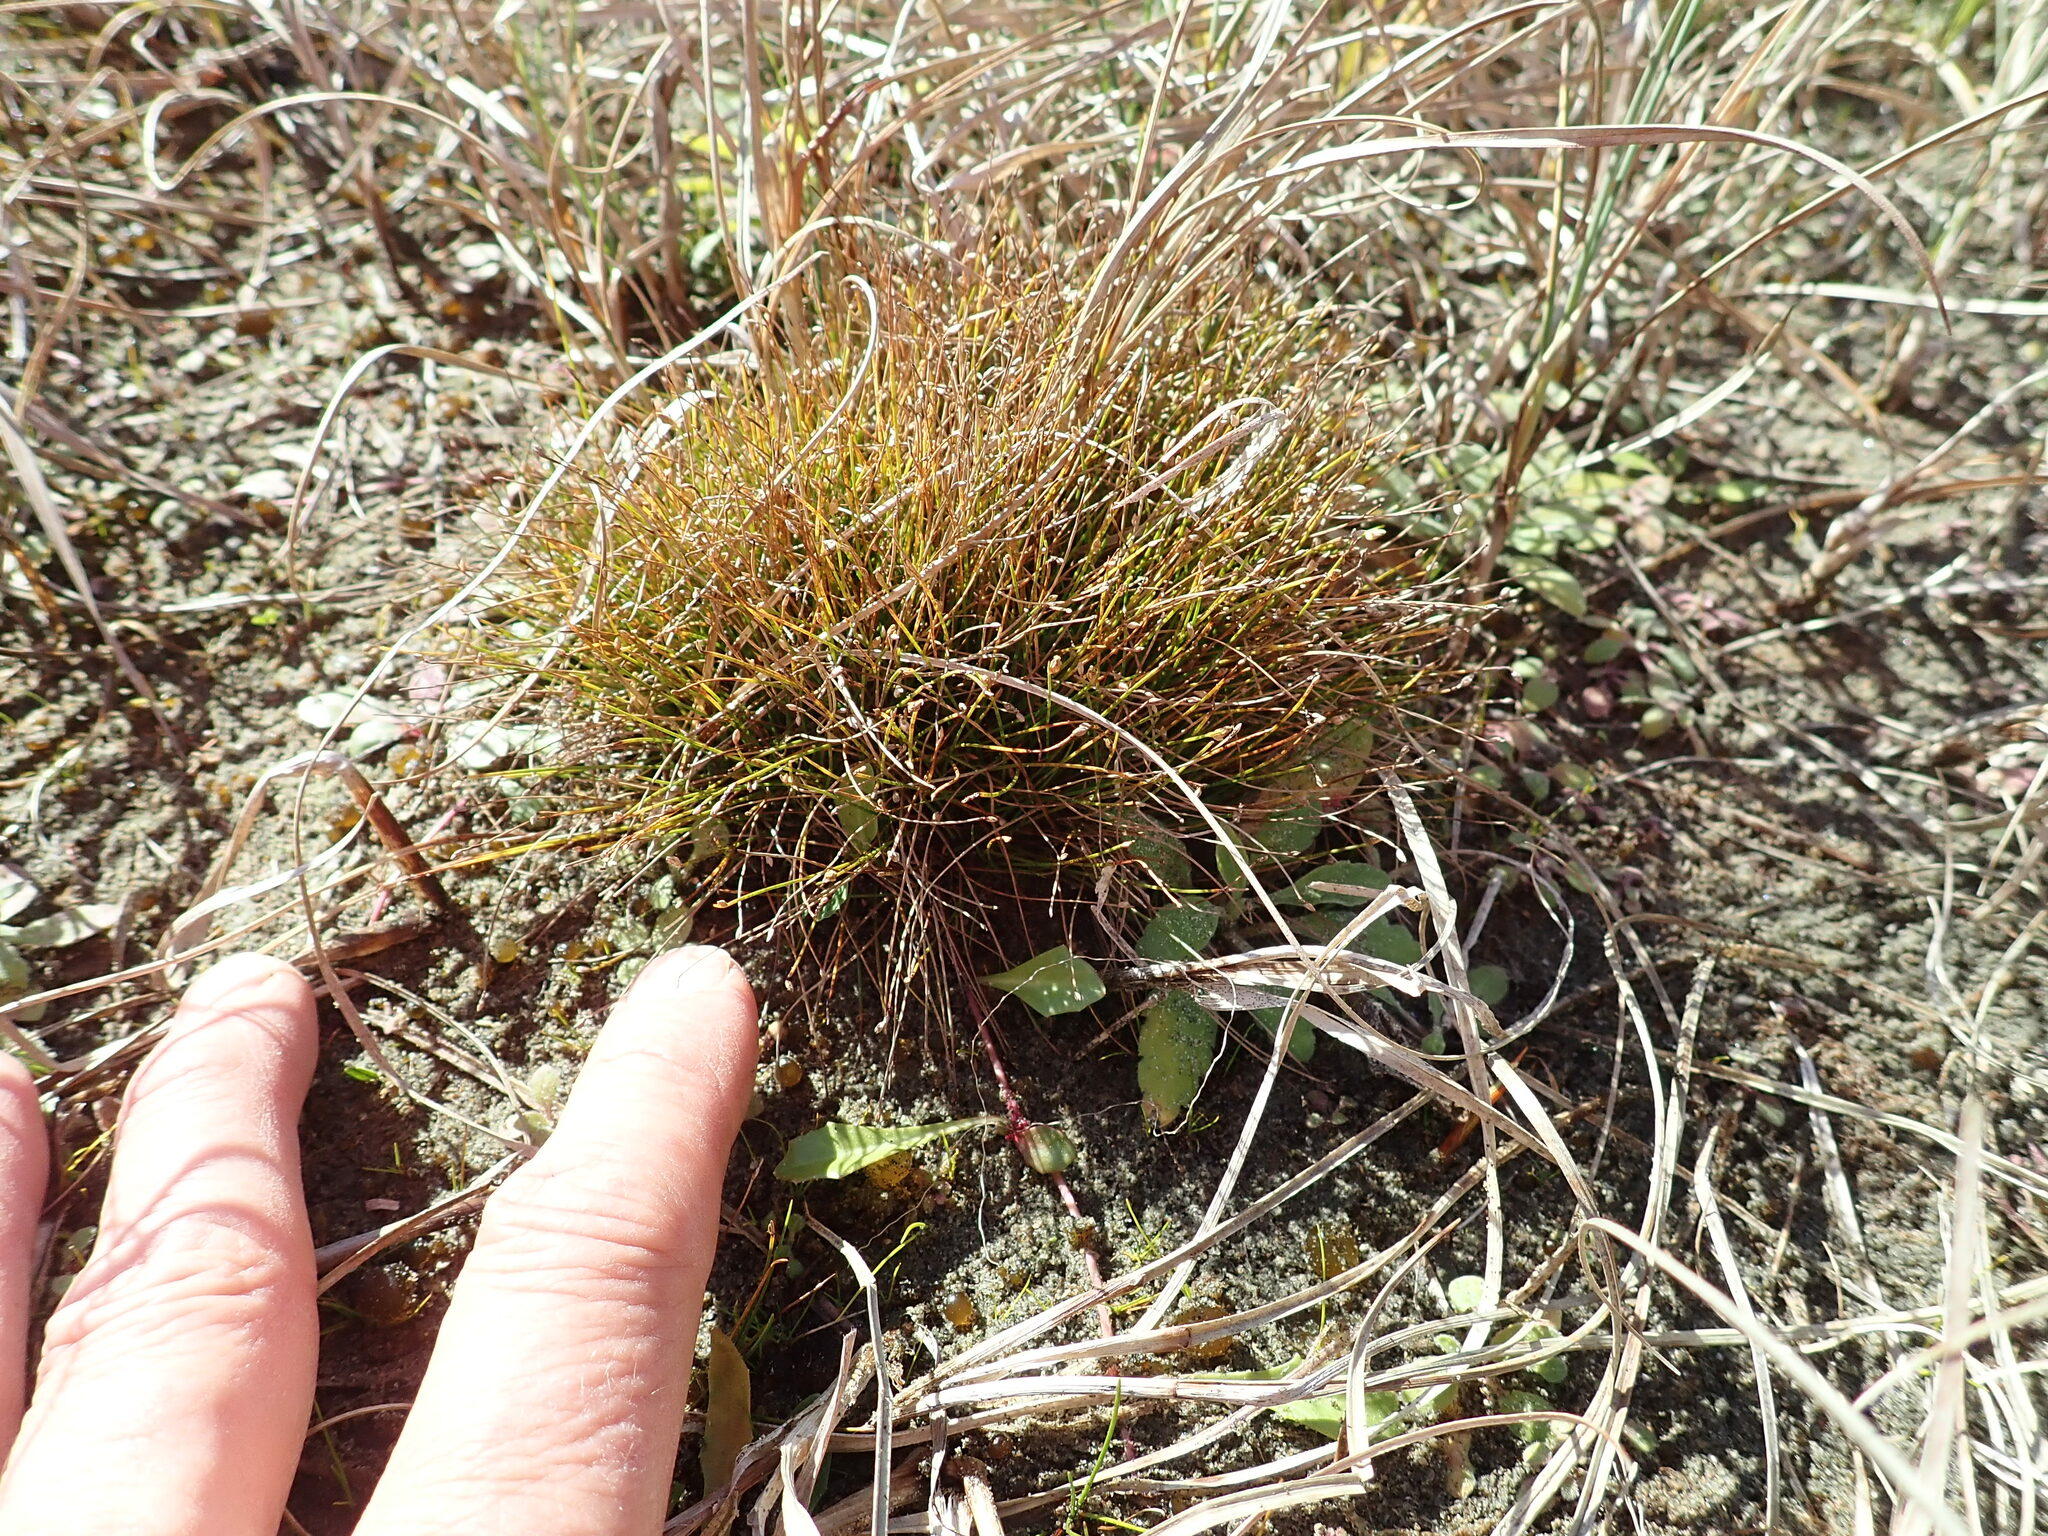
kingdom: Plantae
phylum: Tracheophyta
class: Liliopsida
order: Poales
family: Cyperaceae
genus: Isolepis
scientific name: Isolepis cernua
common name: Slender club-rush
